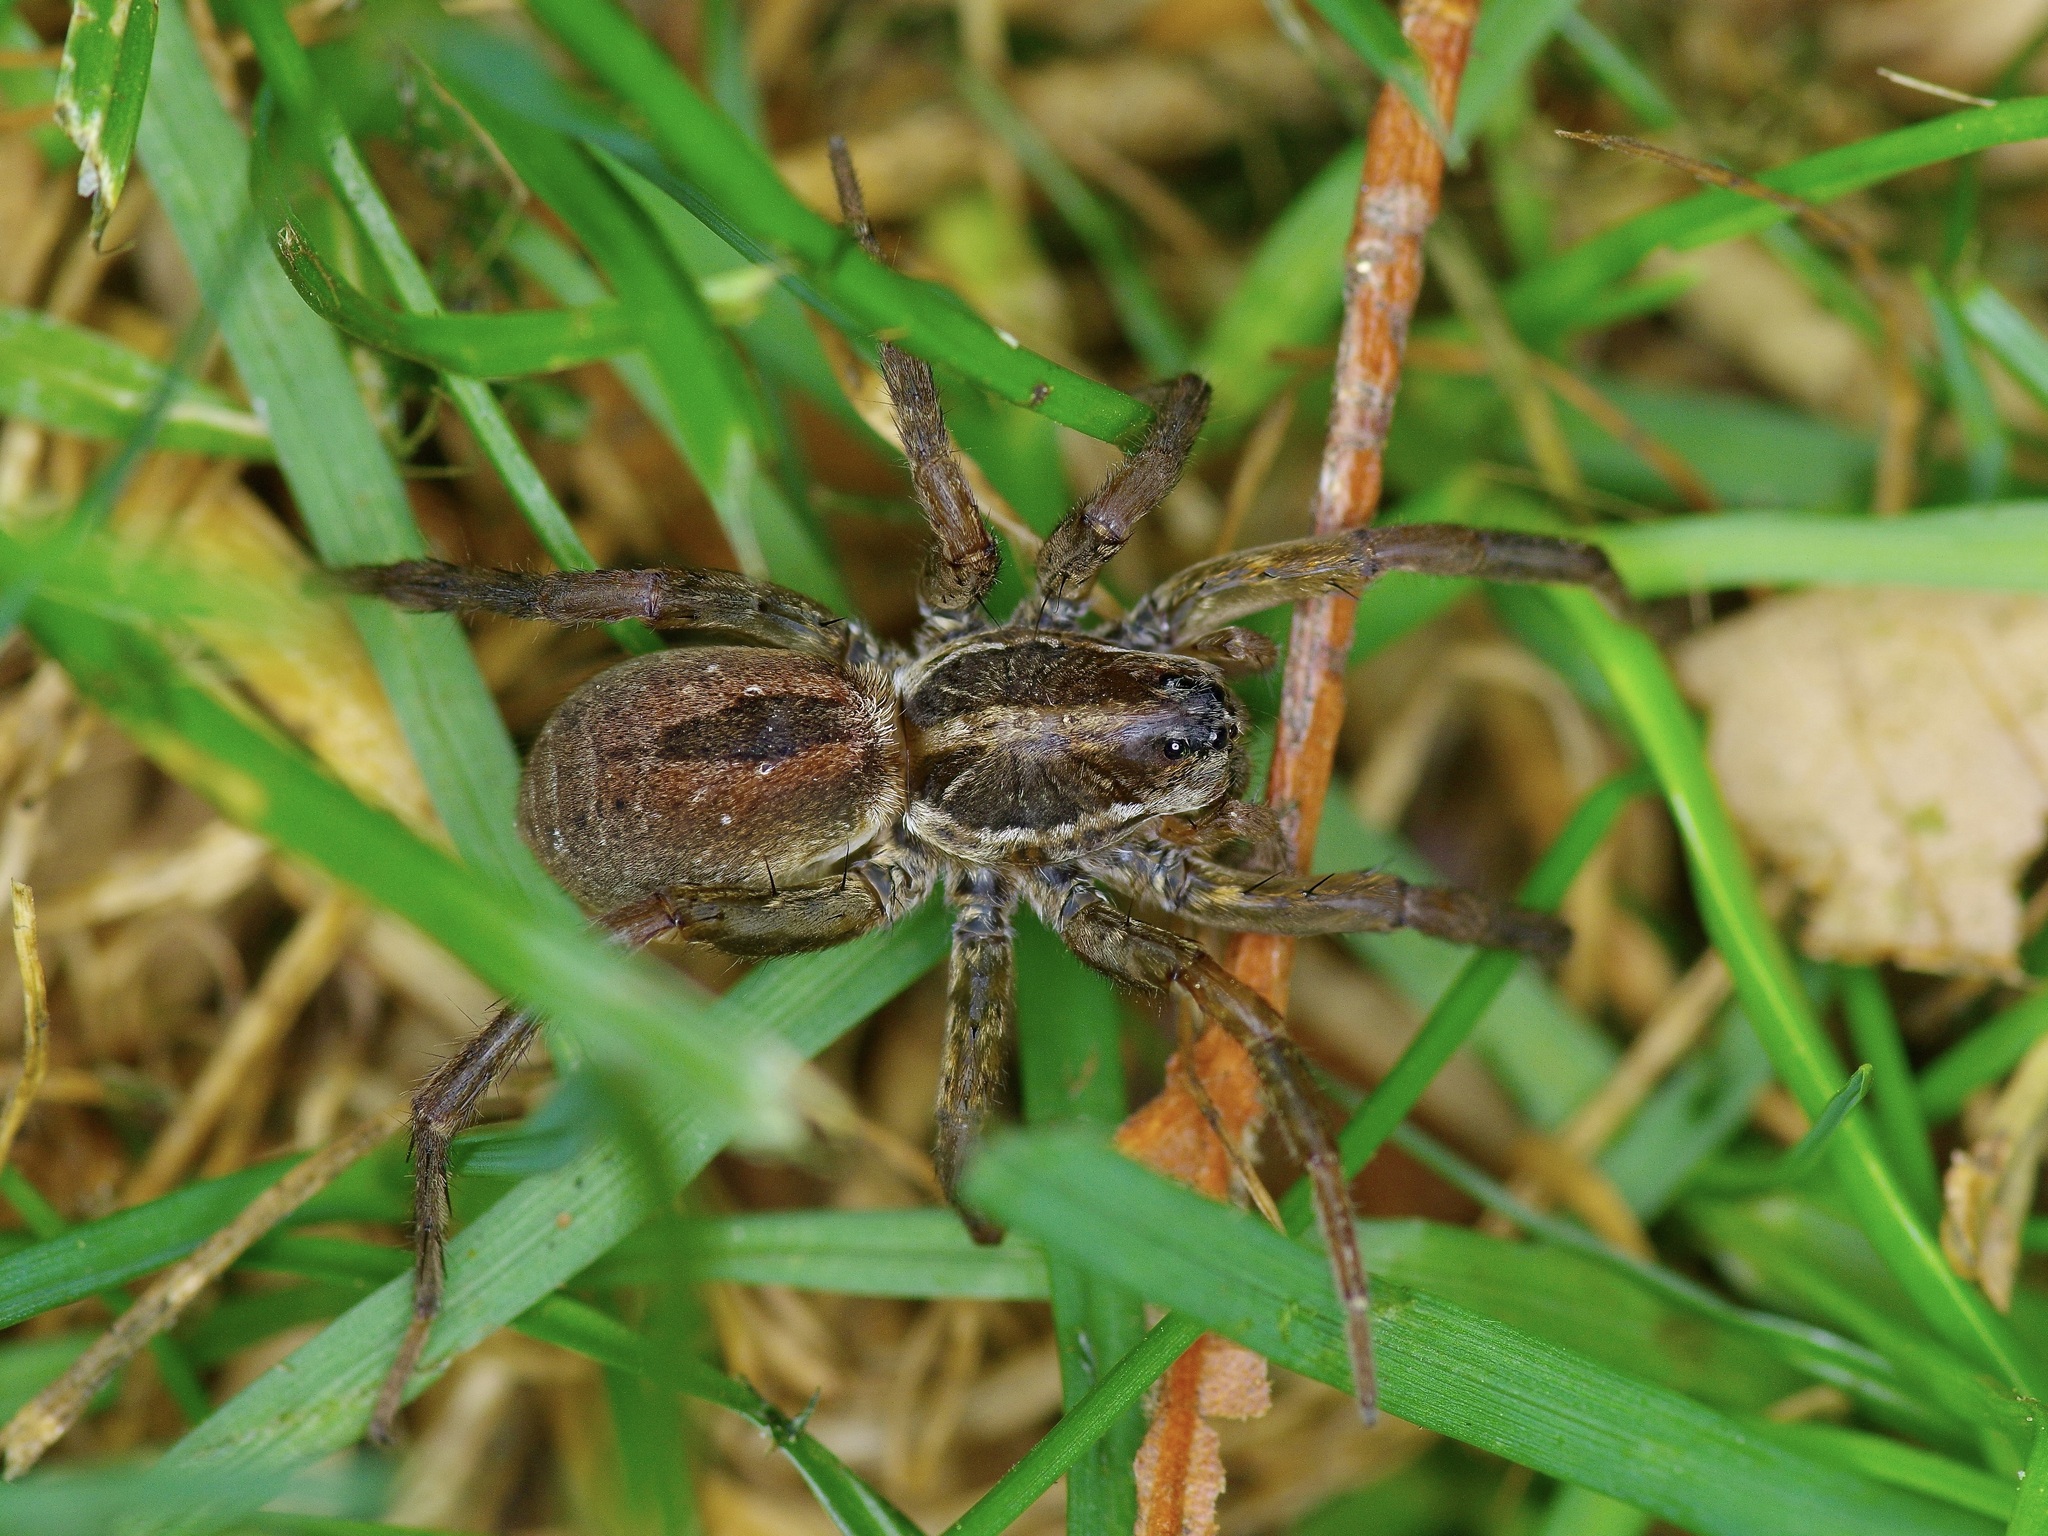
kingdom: Animalia
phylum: Arthropoda
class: Arachnida
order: Araneae
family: Lycosidae
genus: Tigrosa
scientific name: Tigrosa annexa
